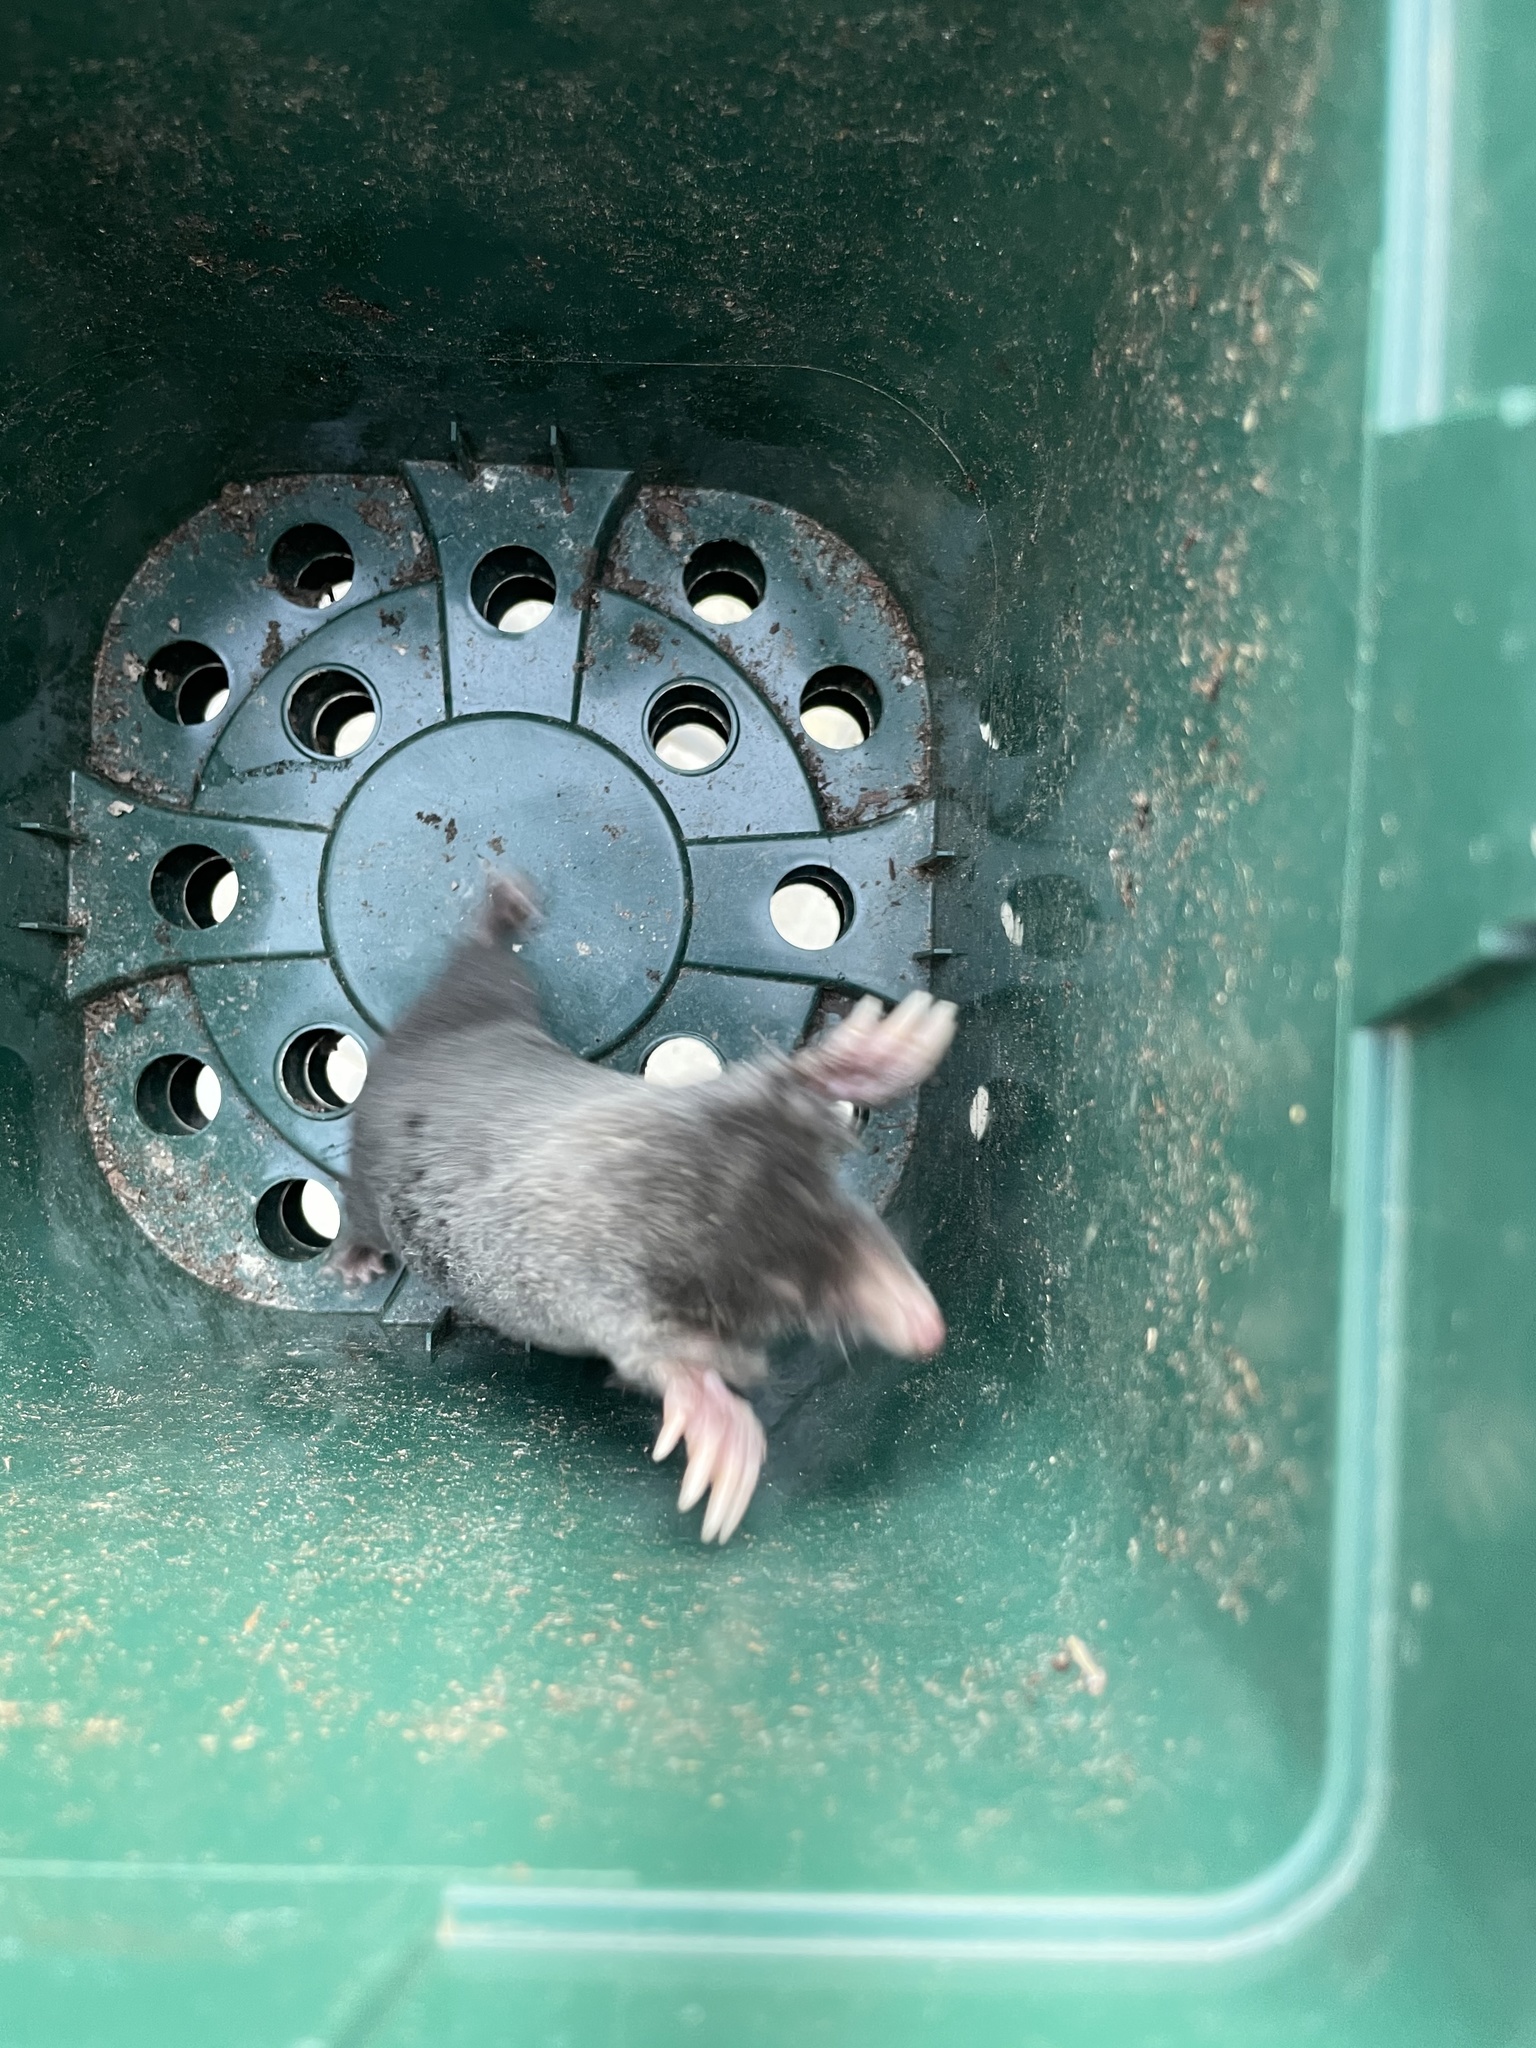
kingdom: Animalia
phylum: Chordata
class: Mammalia
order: Soricomorpha
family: Talpidae
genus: Talpa
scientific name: Talpa europaea
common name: European mole
